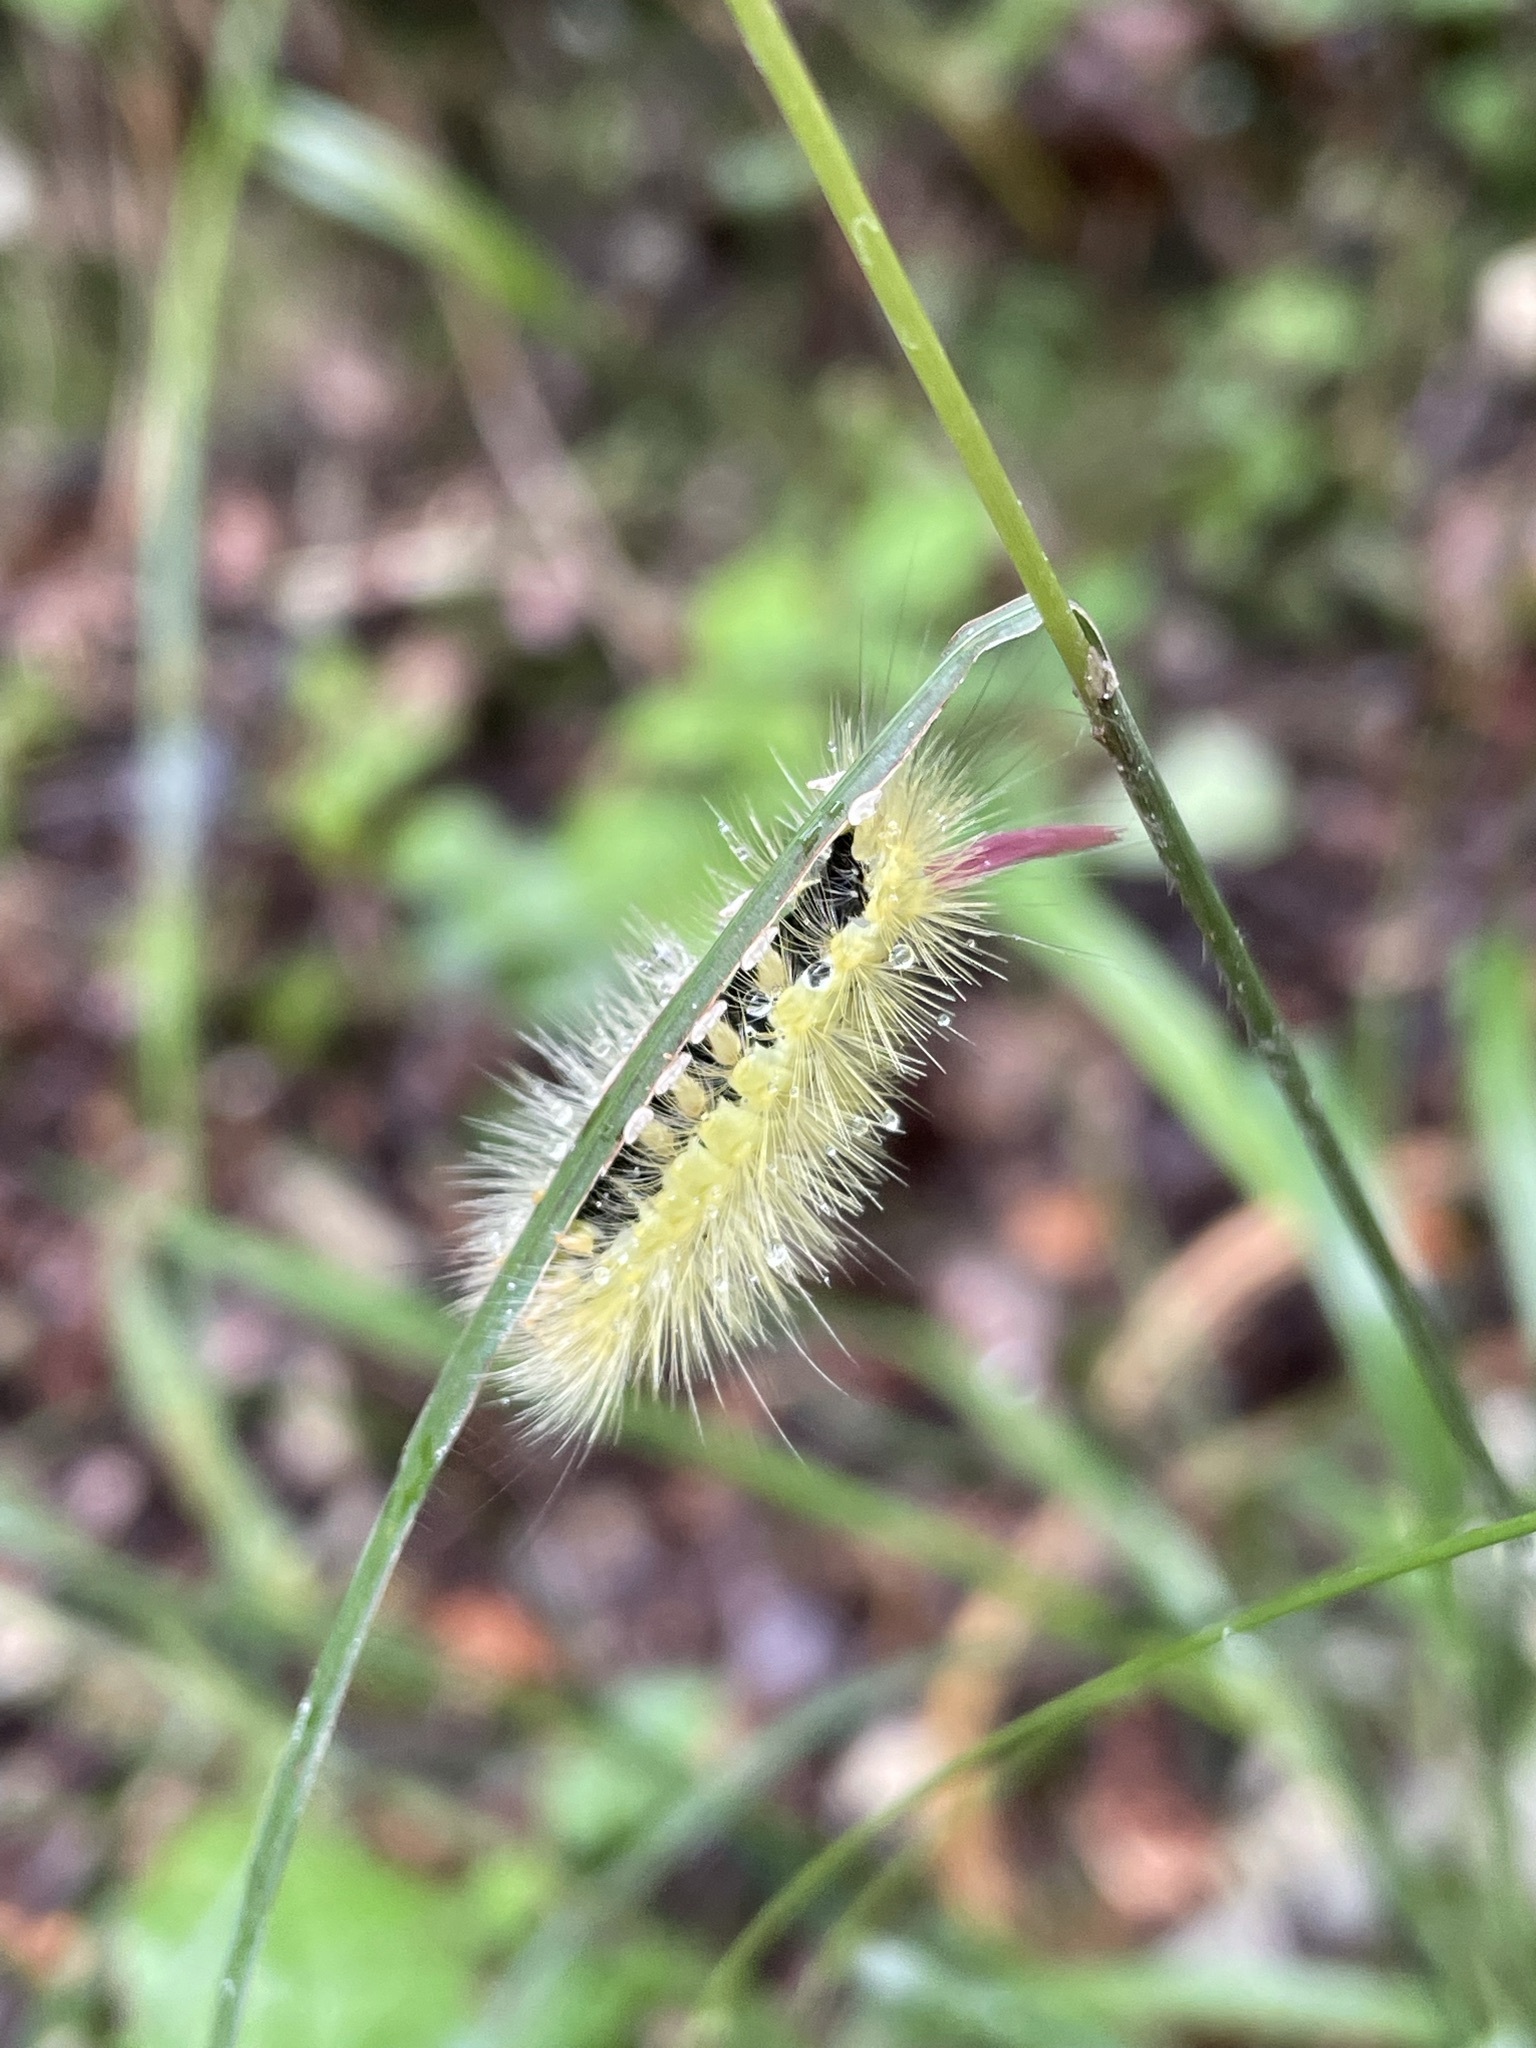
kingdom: Animalia
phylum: Arthropoda
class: Insecta
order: Lepidoptera
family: Erebidae
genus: Calliteara
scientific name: Calliteara pudibunda
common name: Pale tussock
